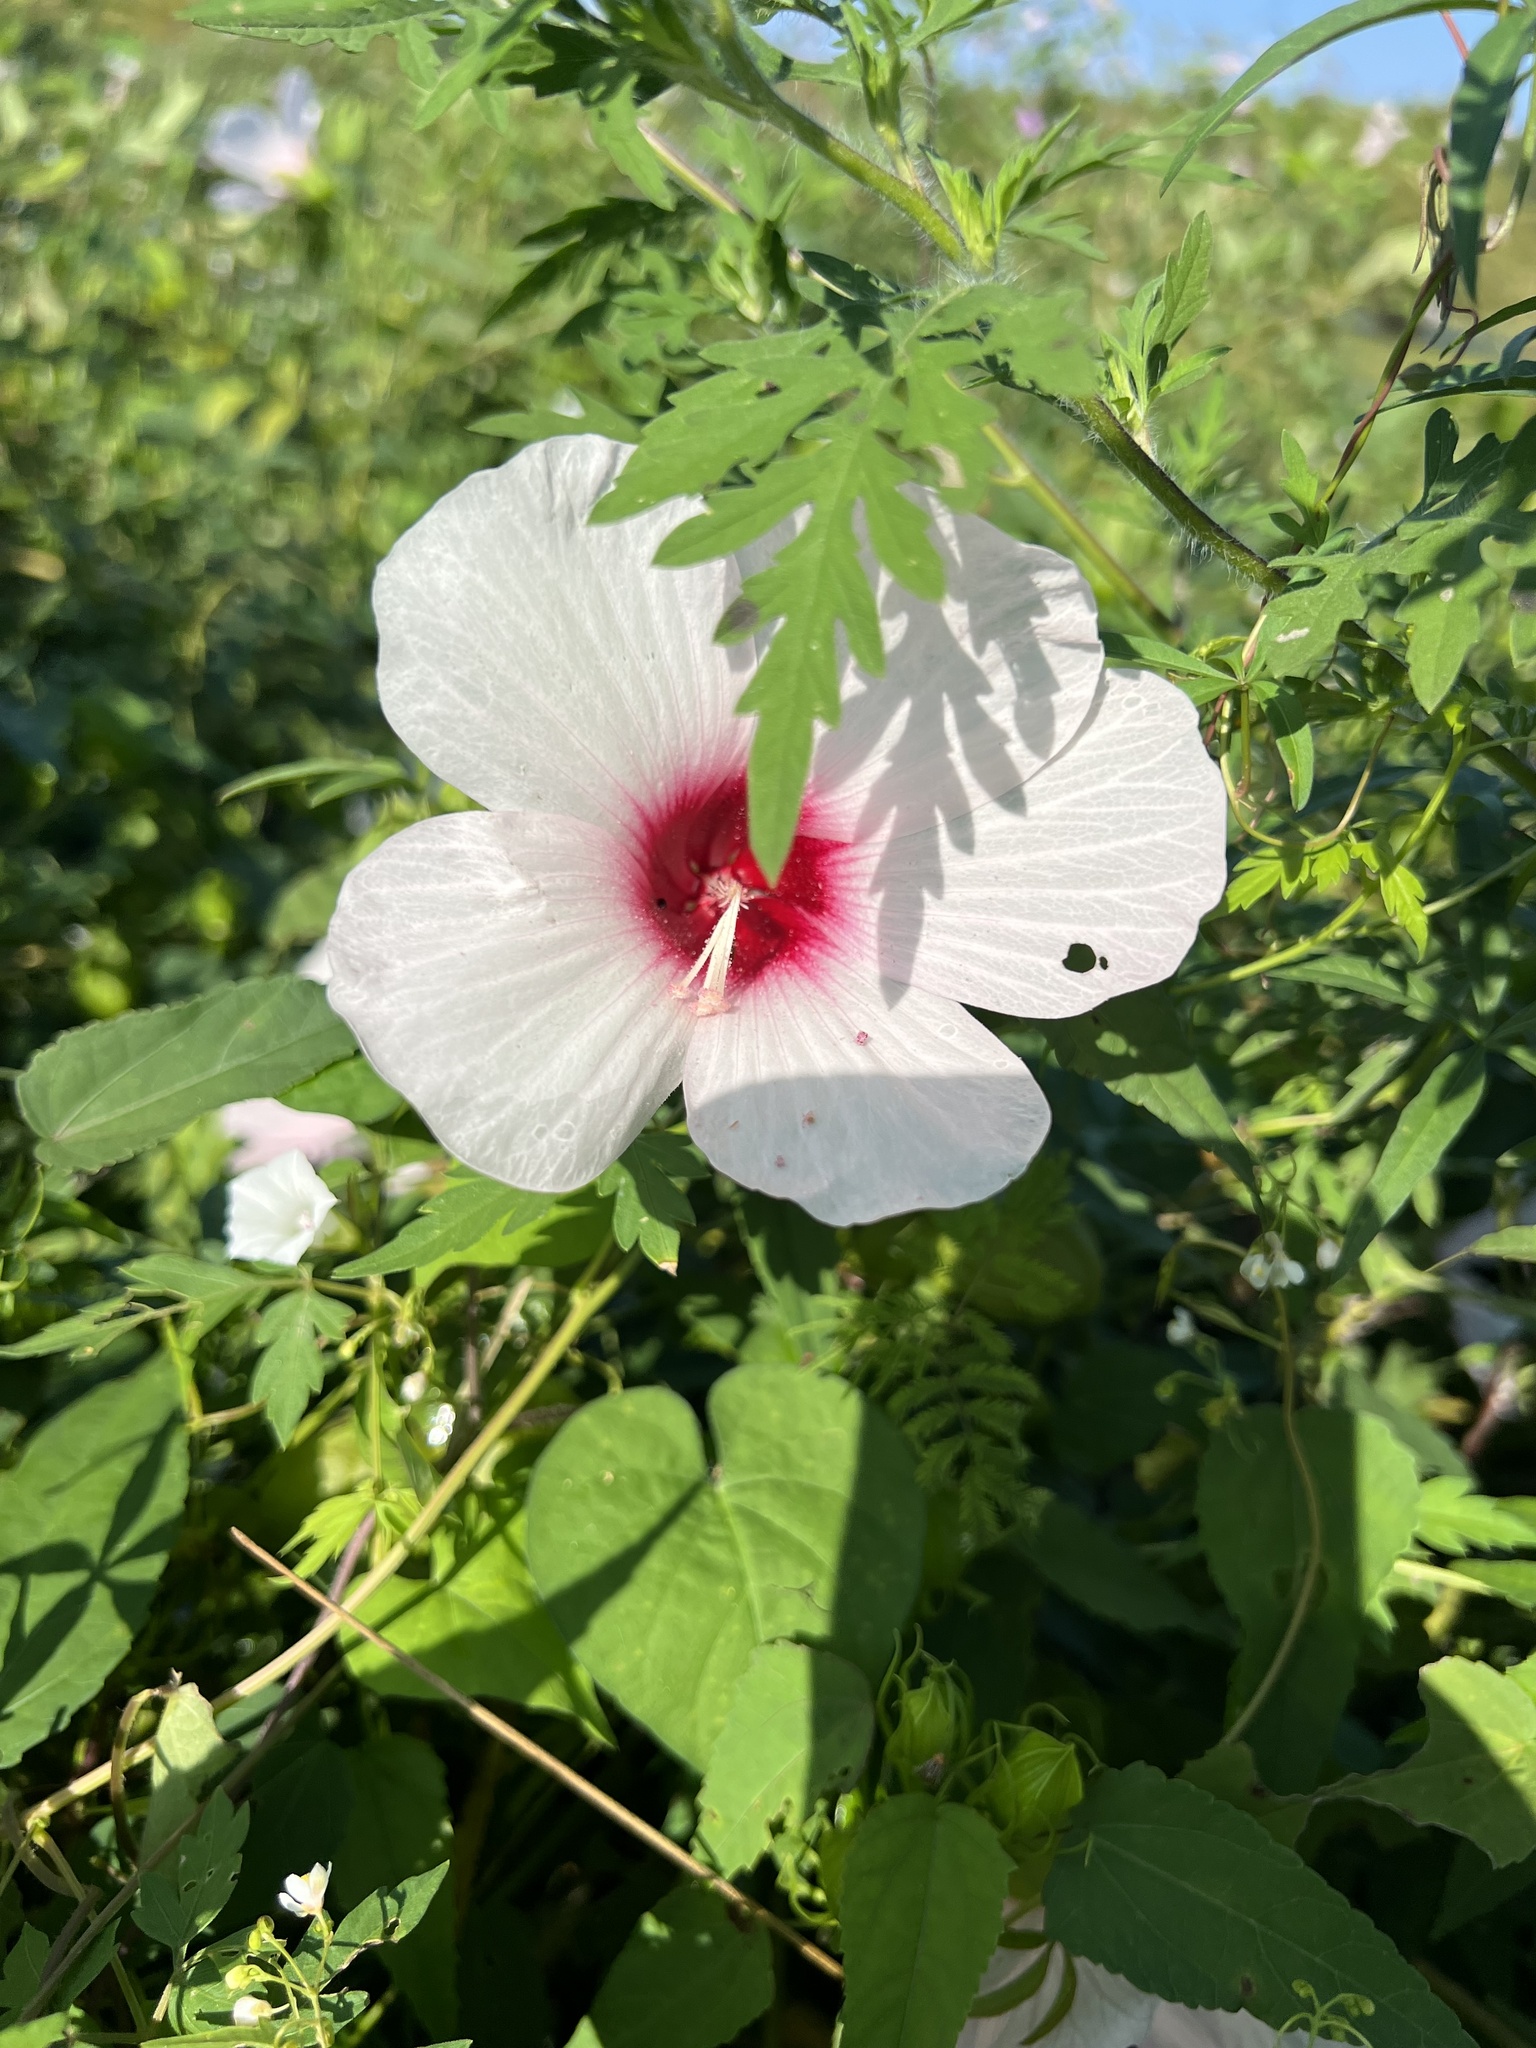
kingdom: Plantae
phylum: Tracheophyta
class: Magnoliopsida
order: Malvales
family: Malvaceae
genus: Hibiscus
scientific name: Hibiscus laevis
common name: Scarlet rose-mallow
